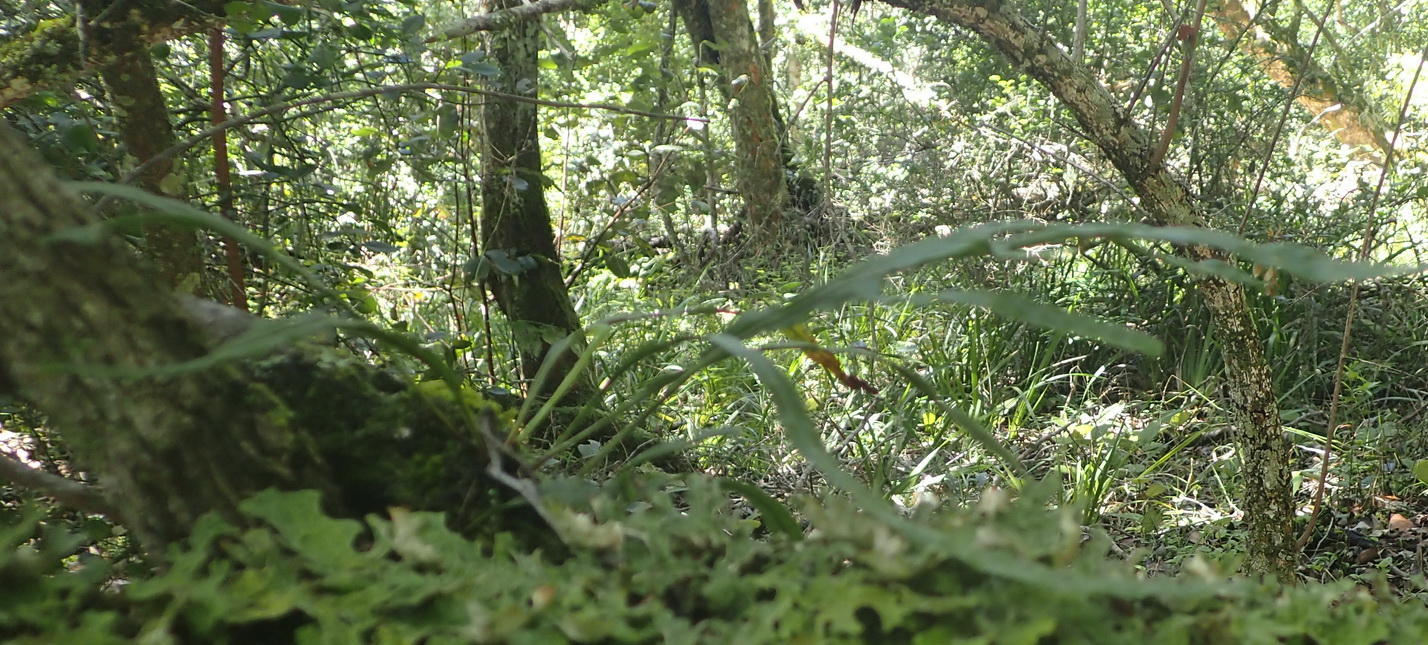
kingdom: Plantae
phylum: Tracheophyta
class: Polypodiopsida
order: Polypodiales
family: Polypodiaceae
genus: Polypodium
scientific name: Polypodium ensiforme
